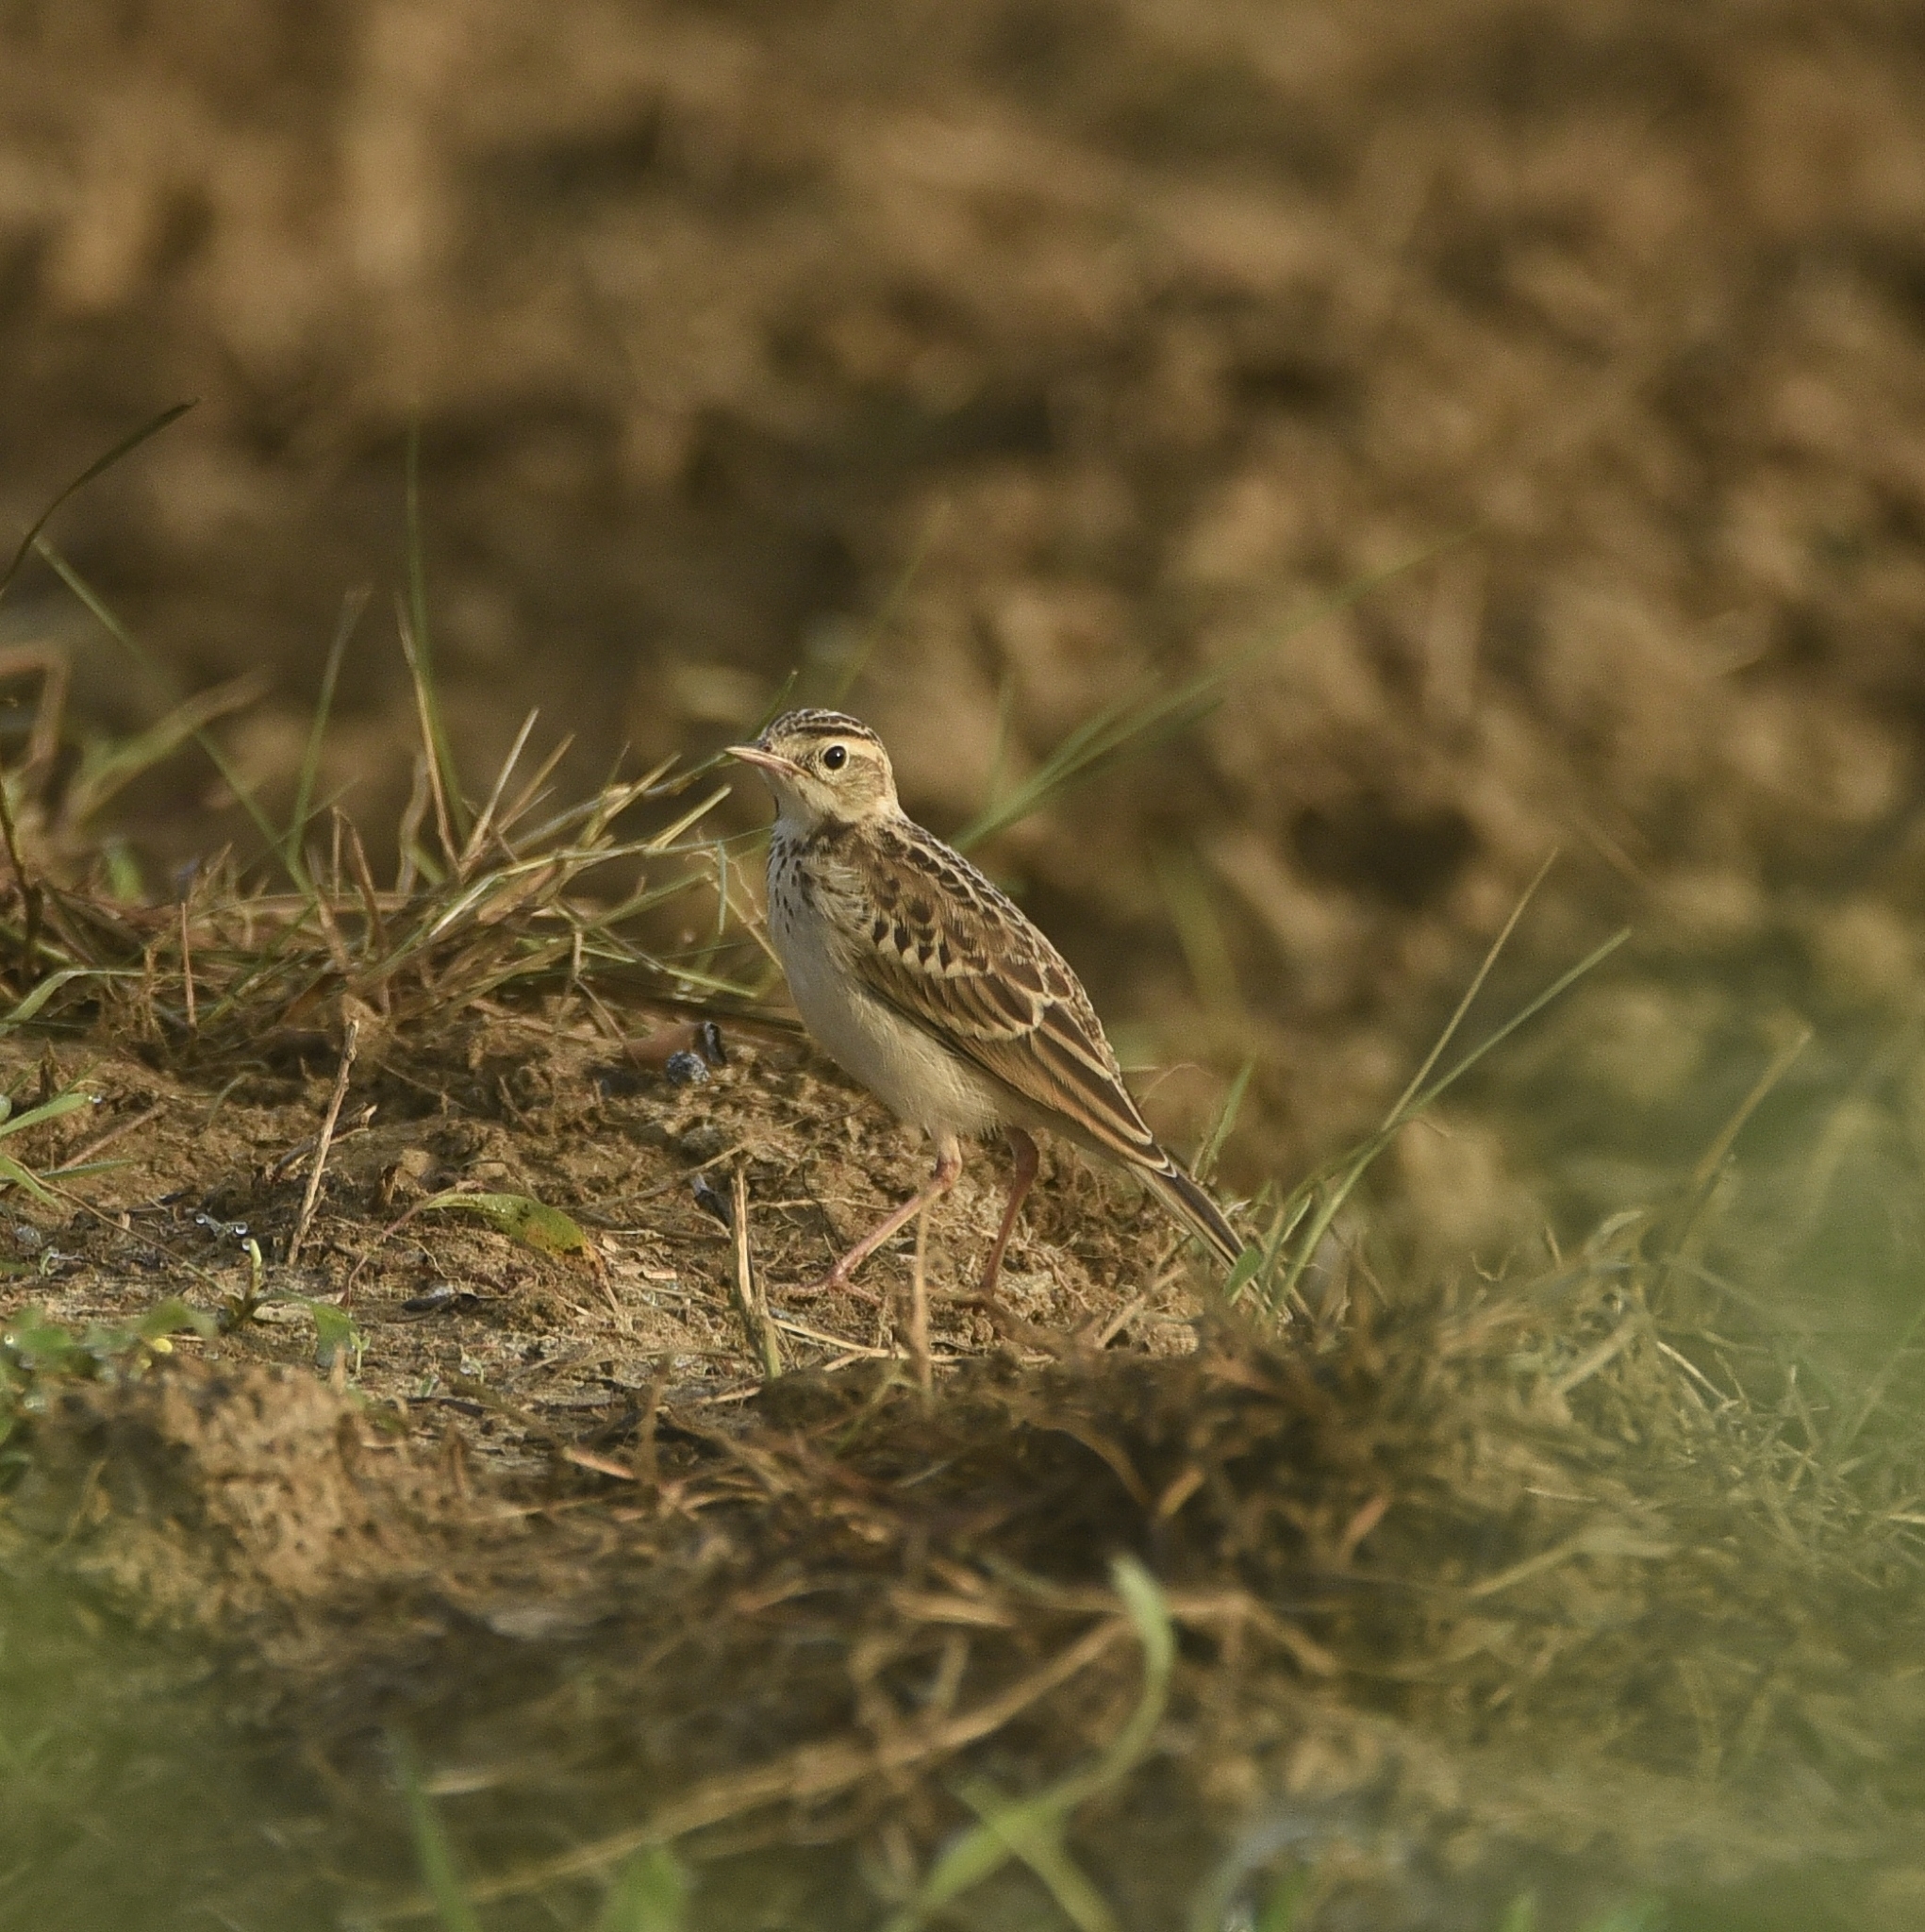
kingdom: Animalia
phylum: Chordata
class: Aves
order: Passeriformes
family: Motacillidae
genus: Anthus
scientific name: Anthus rufulus
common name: Paddyfield pipit
